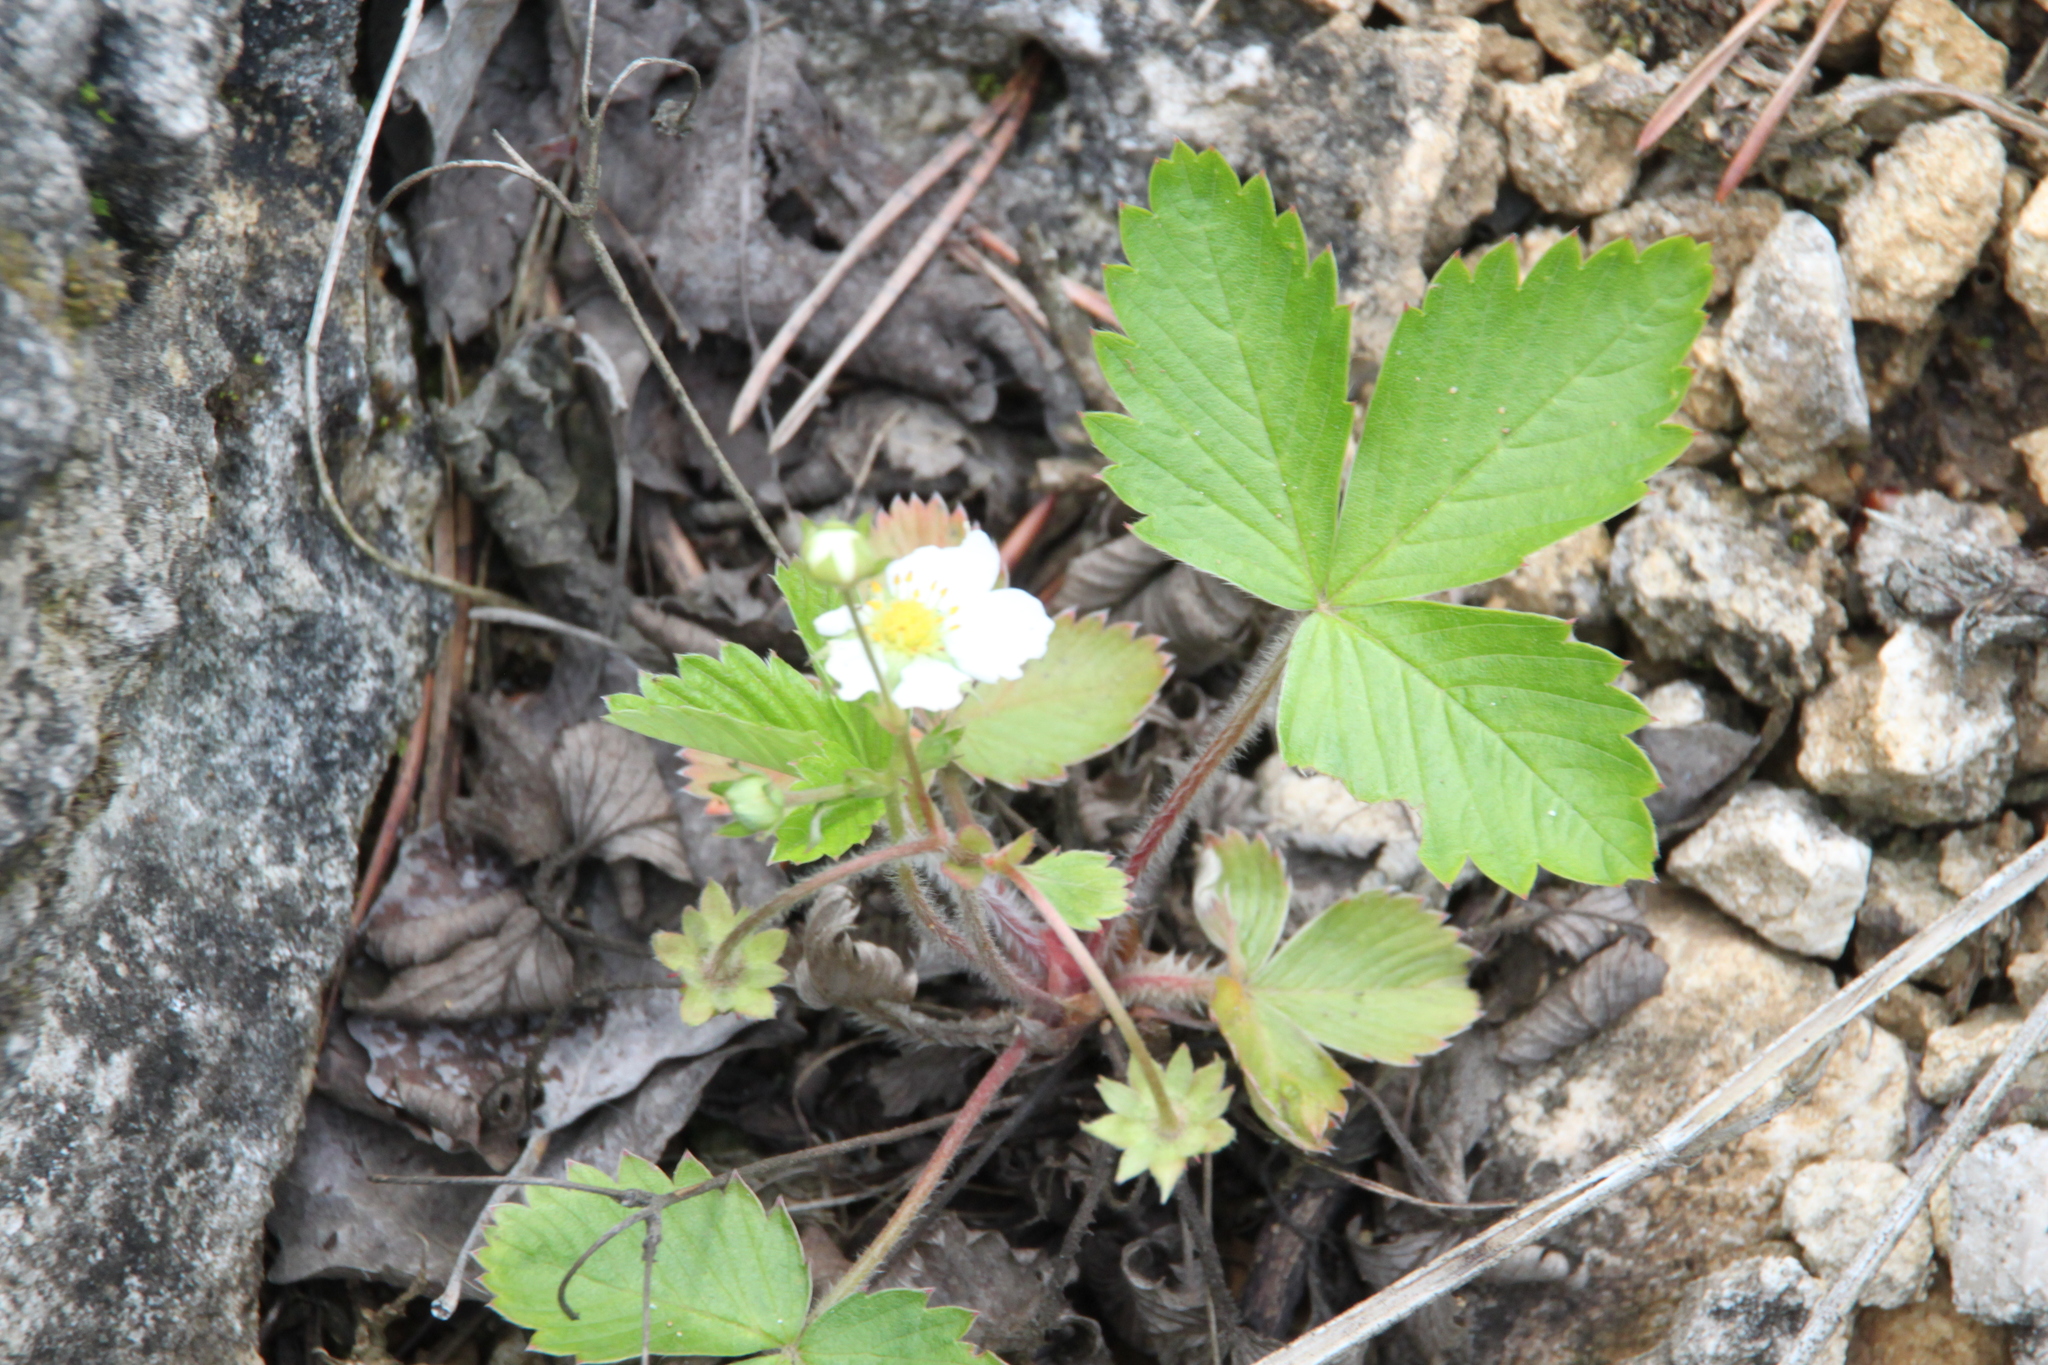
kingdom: Plantae
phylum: Tracheophyta
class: Magnoliopsida
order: Rosales
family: Rosaceae
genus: Fragaria
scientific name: Fragaria viridis
